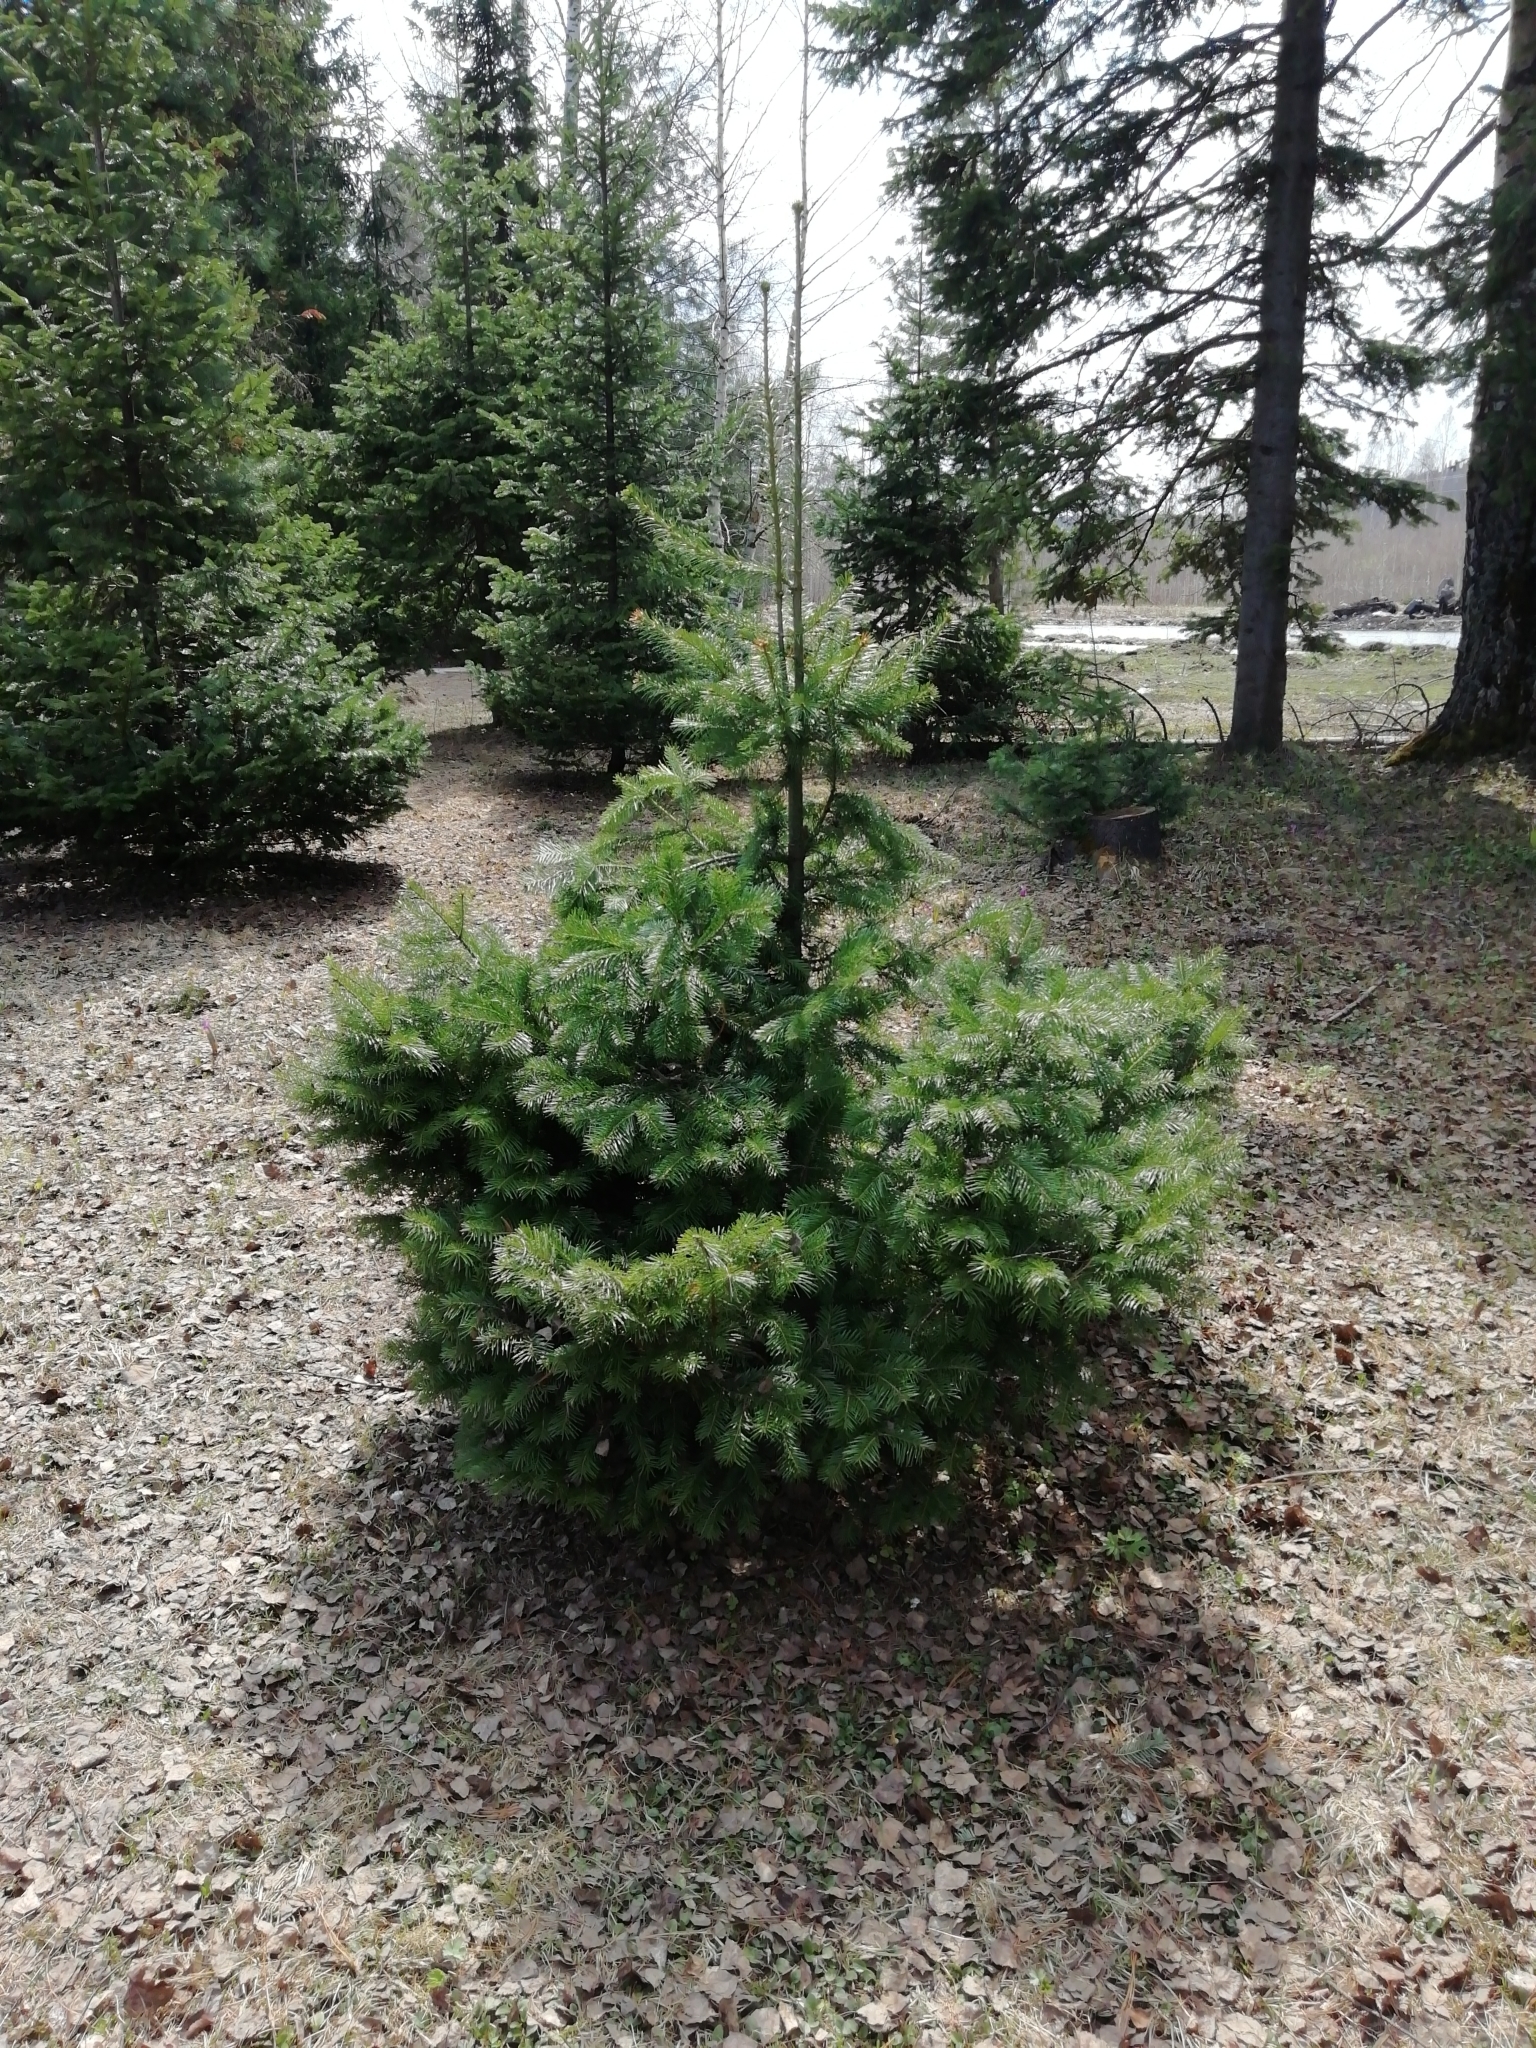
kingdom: Plantae
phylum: Tracheophyta
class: Pinopsida
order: Pinales
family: Pinaceae
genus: Abies
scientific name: Abies sibirica
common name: Siberian fir
